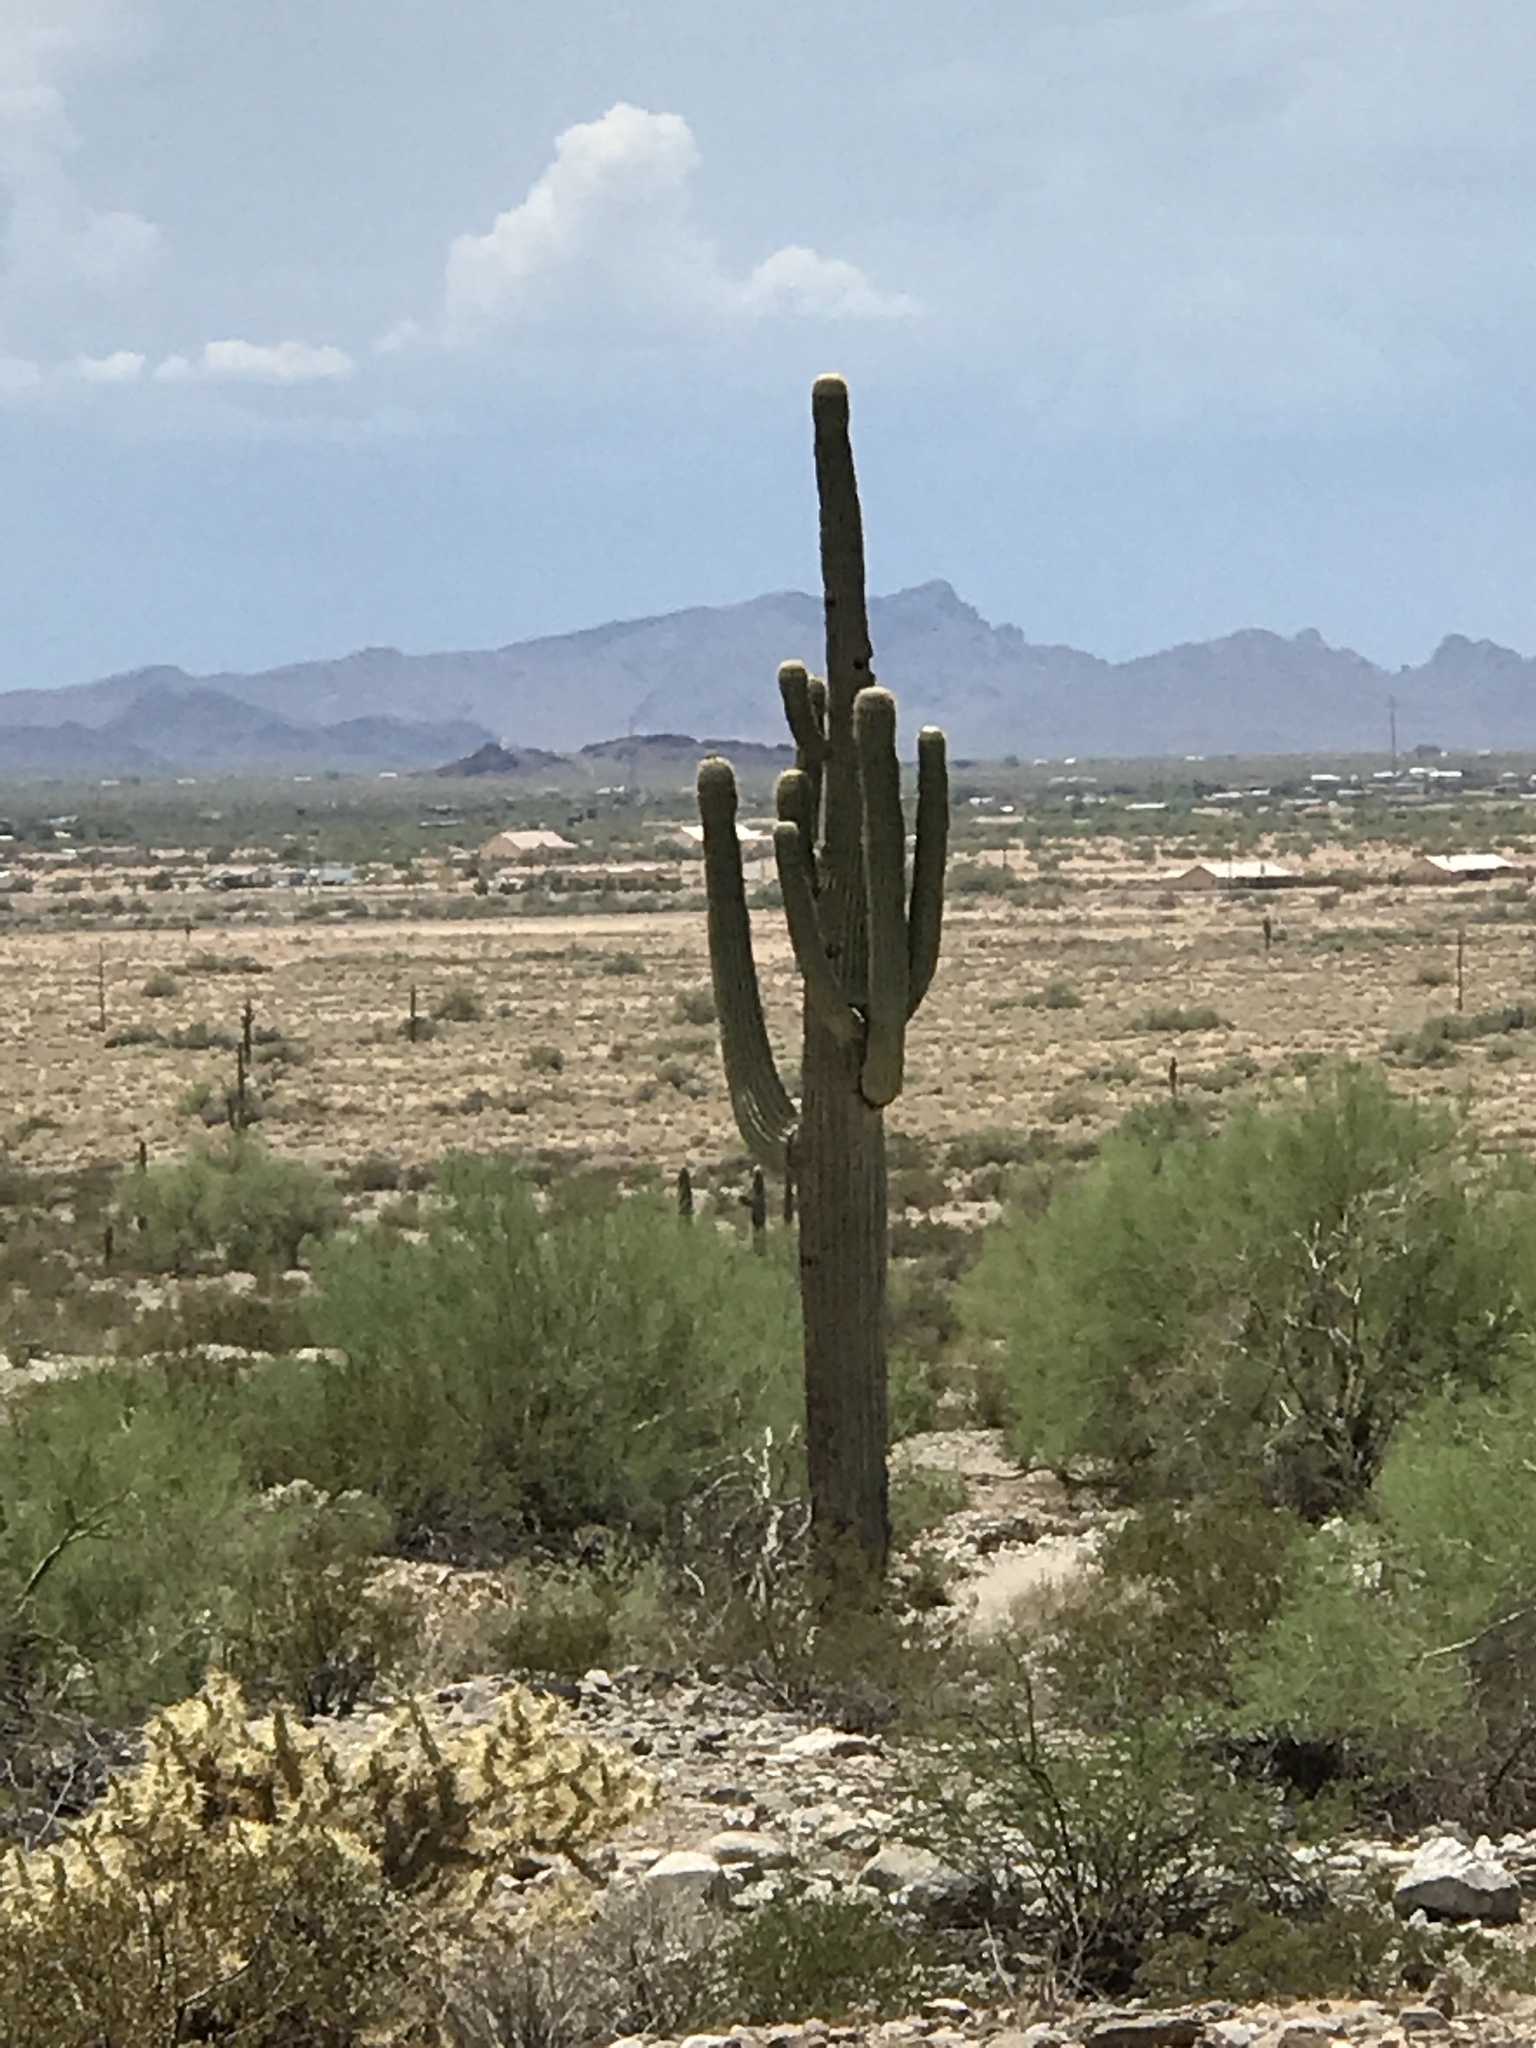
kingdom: Plantae
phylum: Tracheophyta
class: Magnoliopsida
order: Caryophyllales
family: Cactaceae
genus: Carnegiea
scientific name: Carnegiea gigantea
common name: Saguaro
